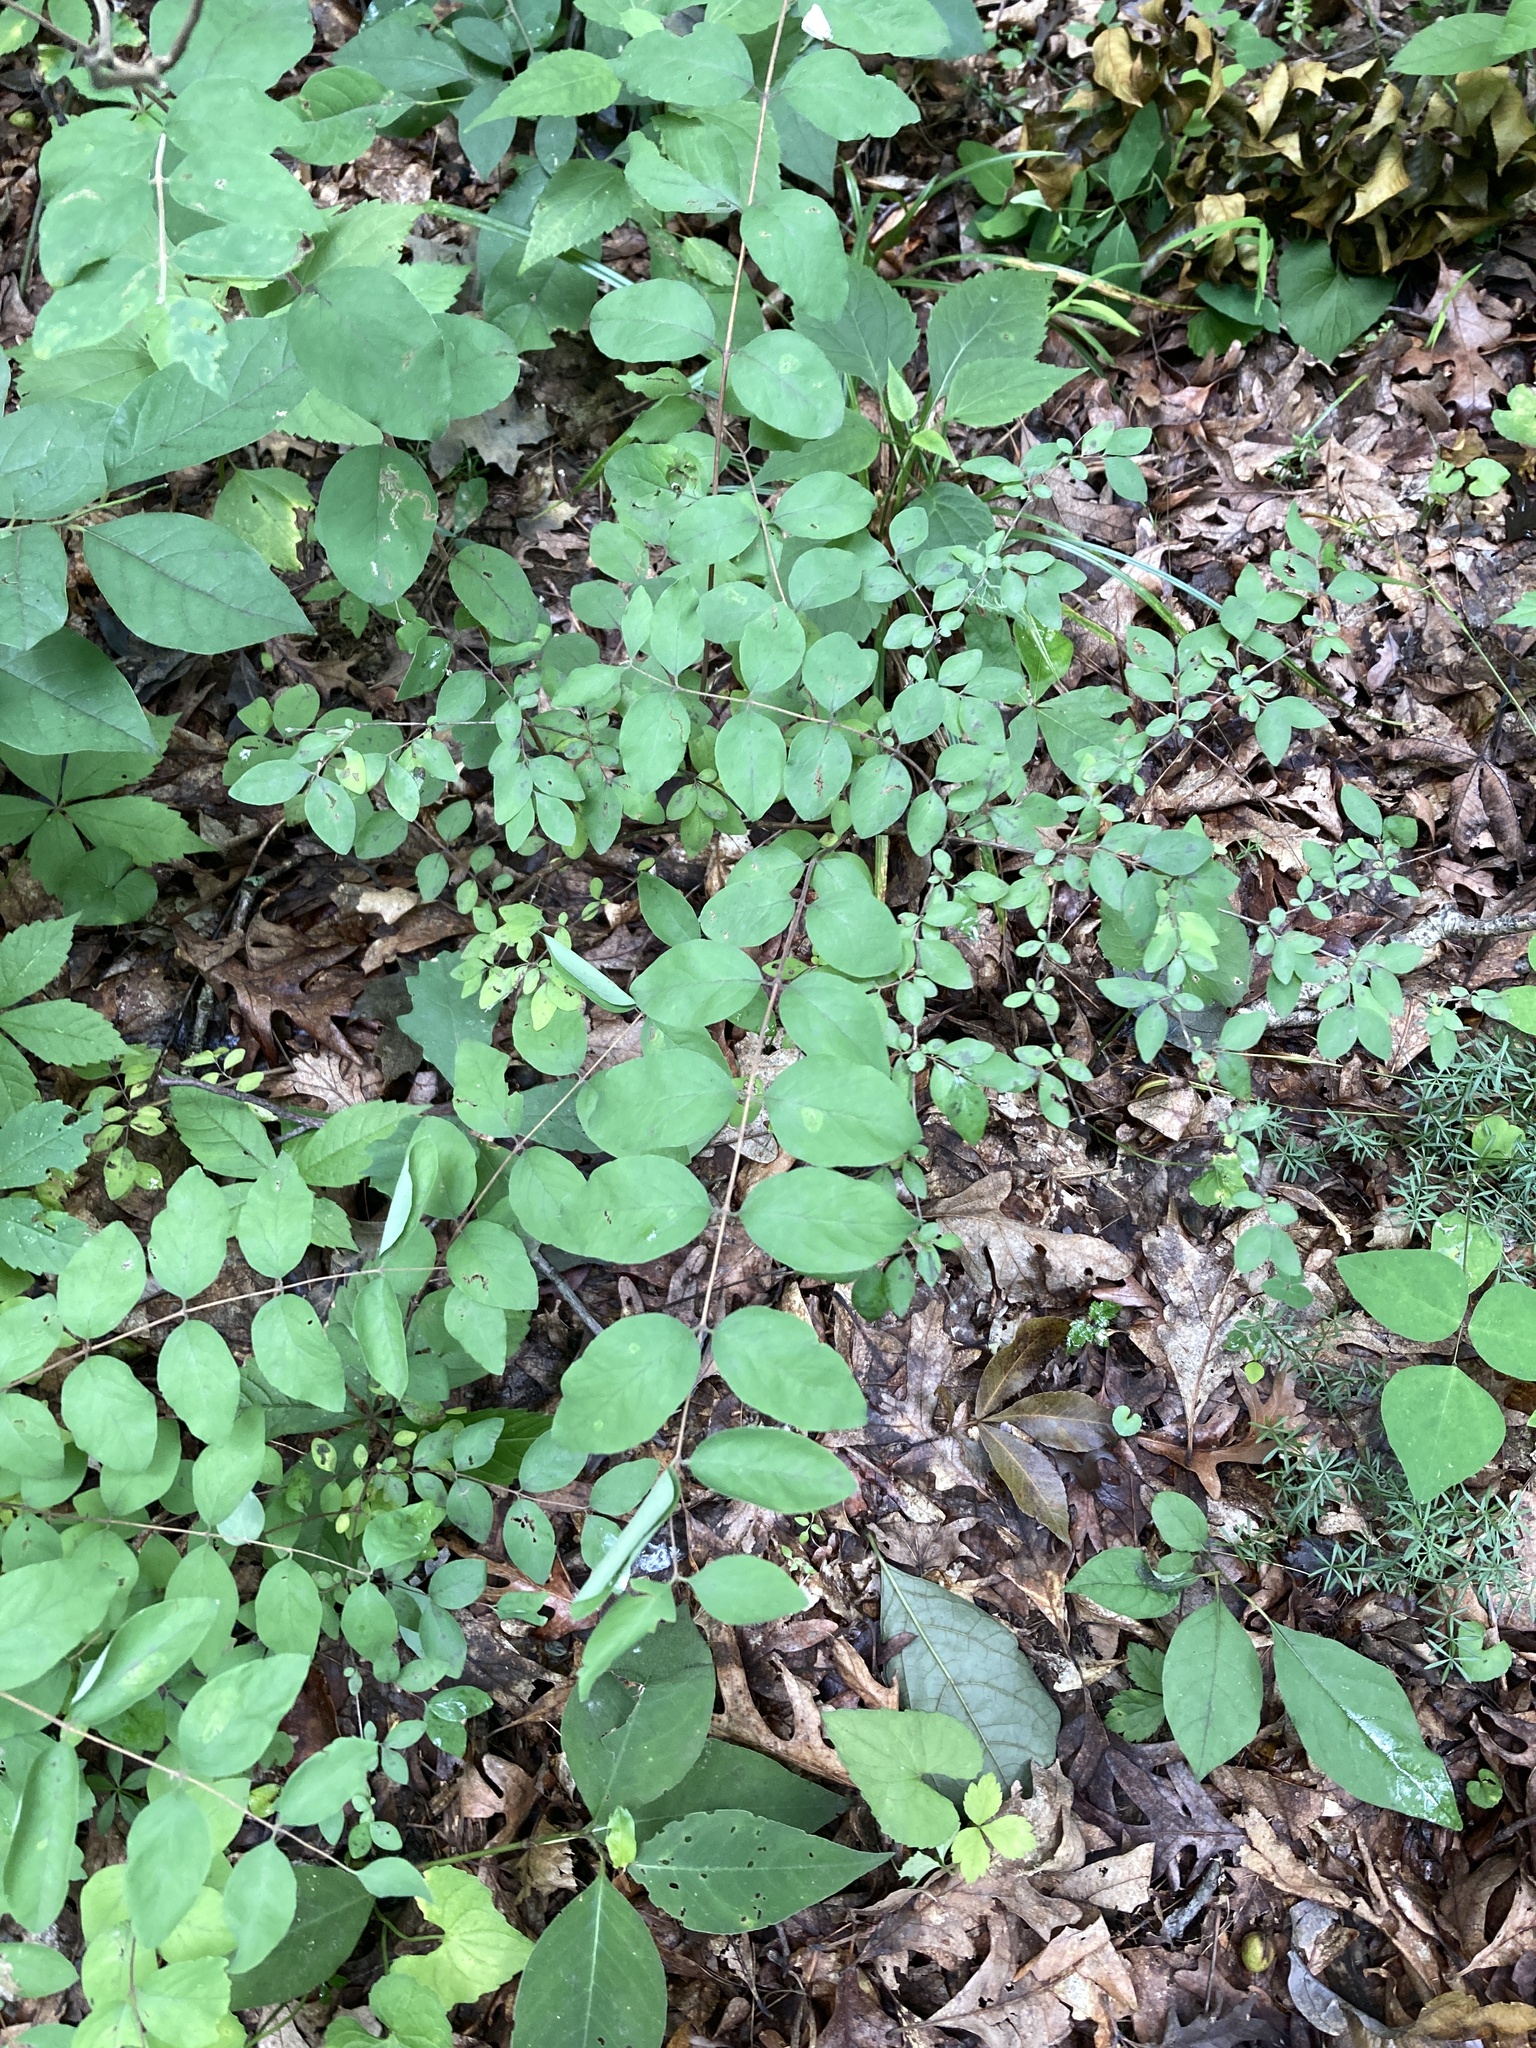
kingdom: Plantae
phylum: Tracheophyta
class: Magnoliopsida
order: Dipsacales
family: Caprifoliaceae
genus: Symphoricarpos
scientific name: Symphoricarpos orbiculatus
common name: Coralberry
